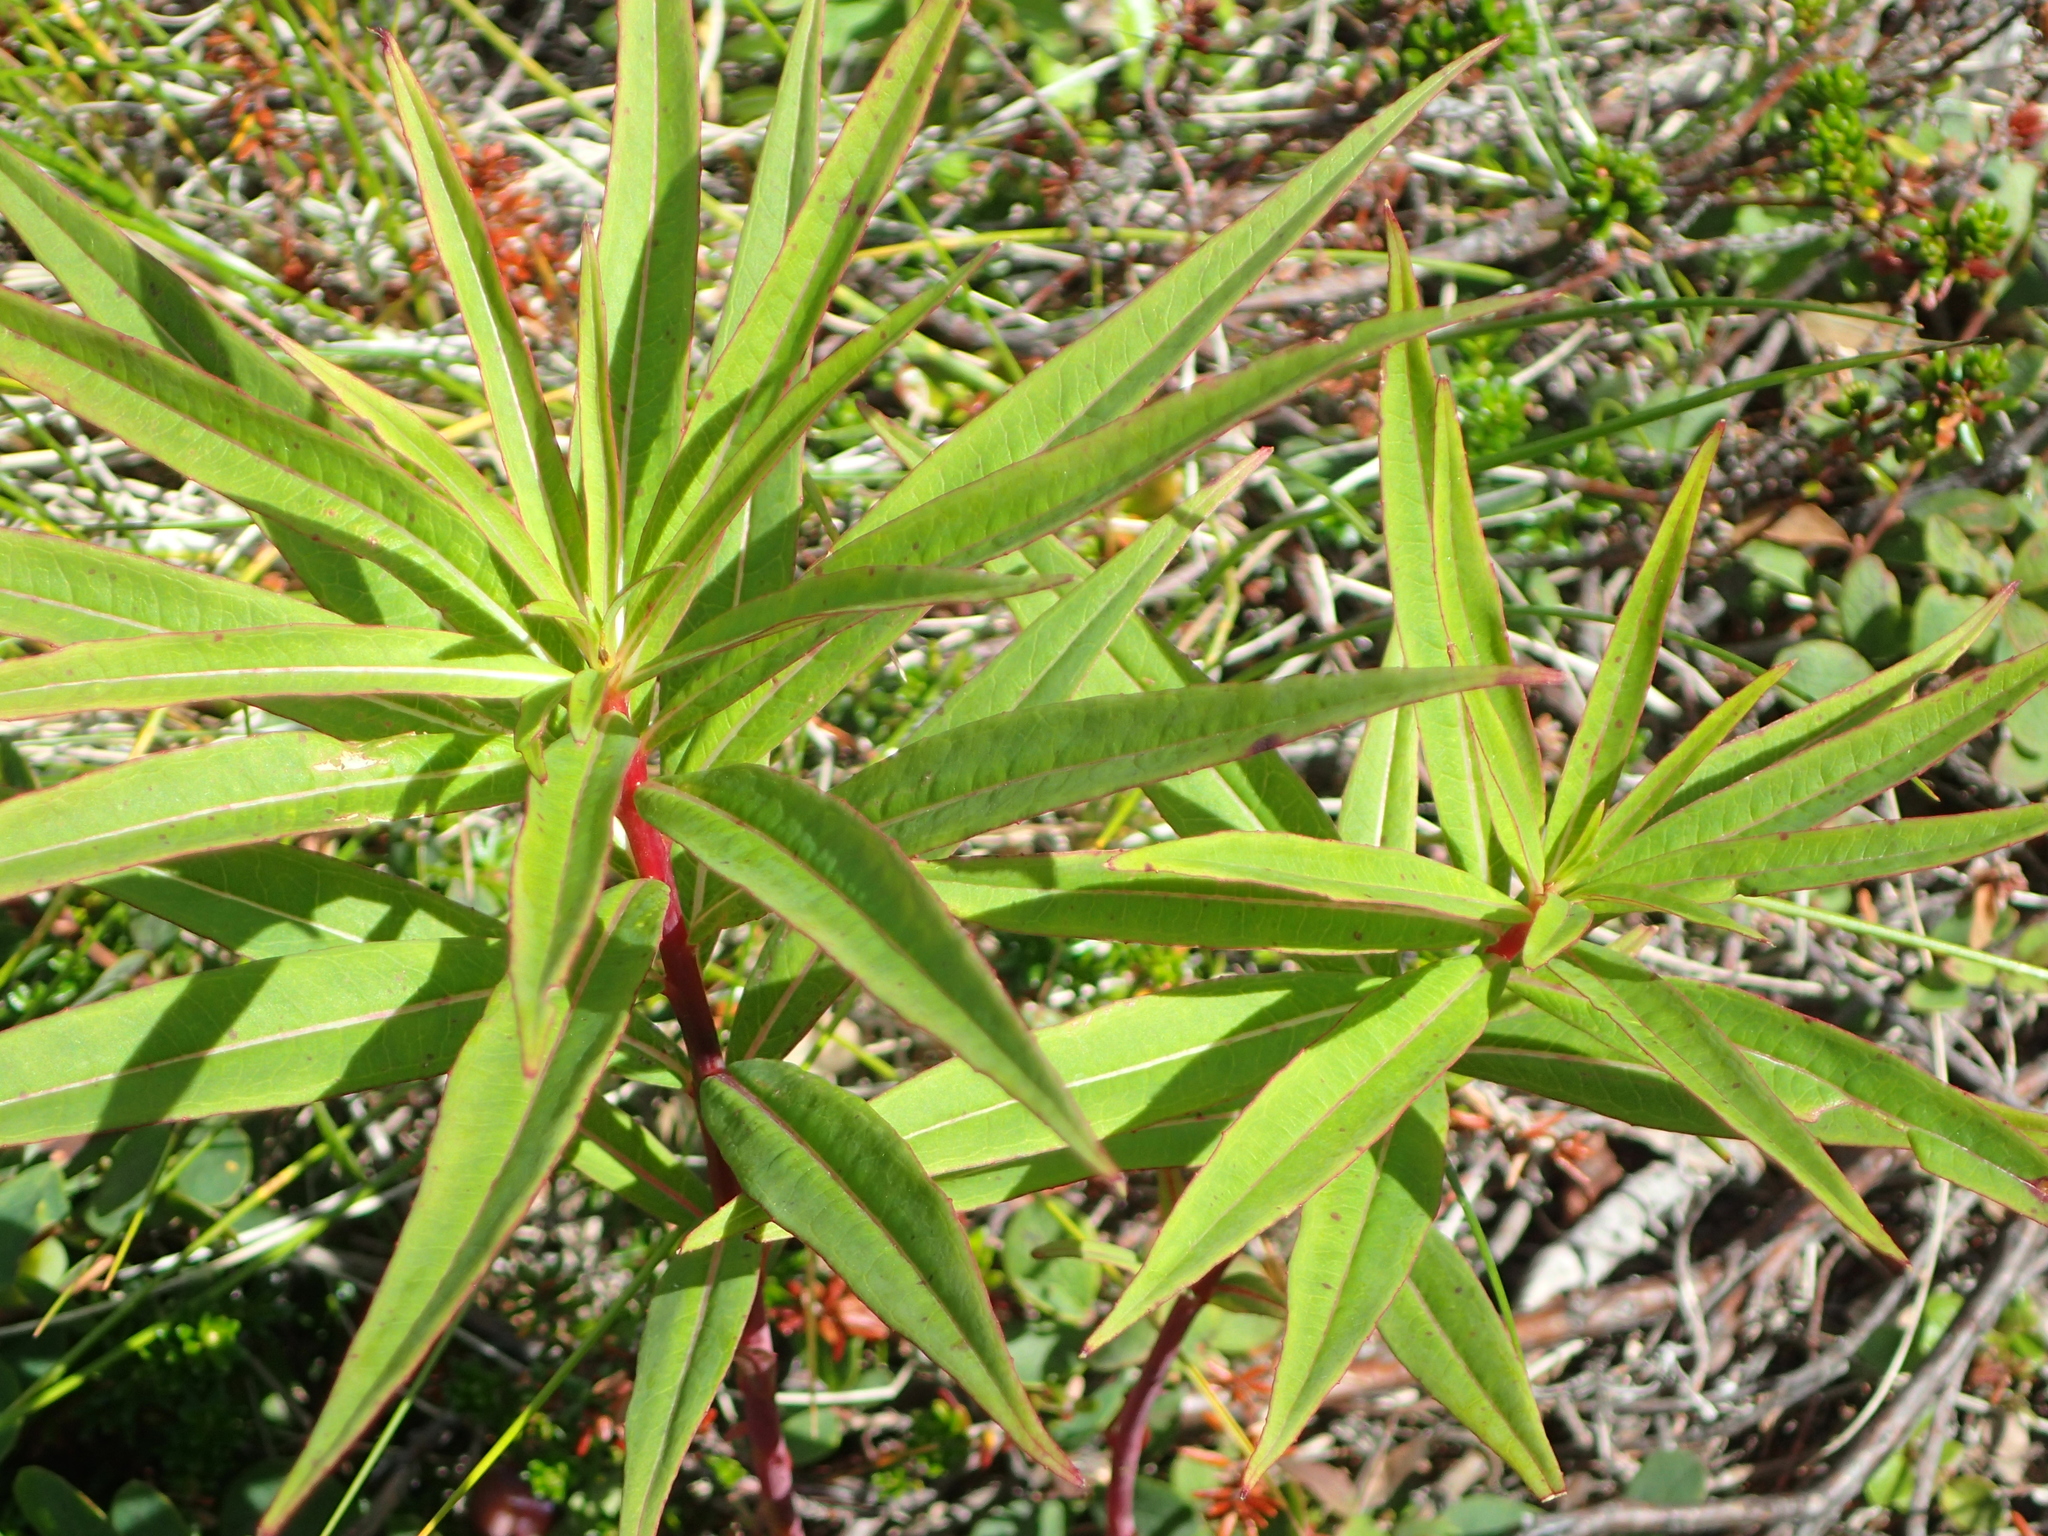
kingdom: Plantae
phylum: Tracheophyta
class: Magnoliopsida
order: Myrtales
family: Onagraceae
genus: Chamaenerion
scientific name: Chamaenerion angustifolium
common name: Fireweed
